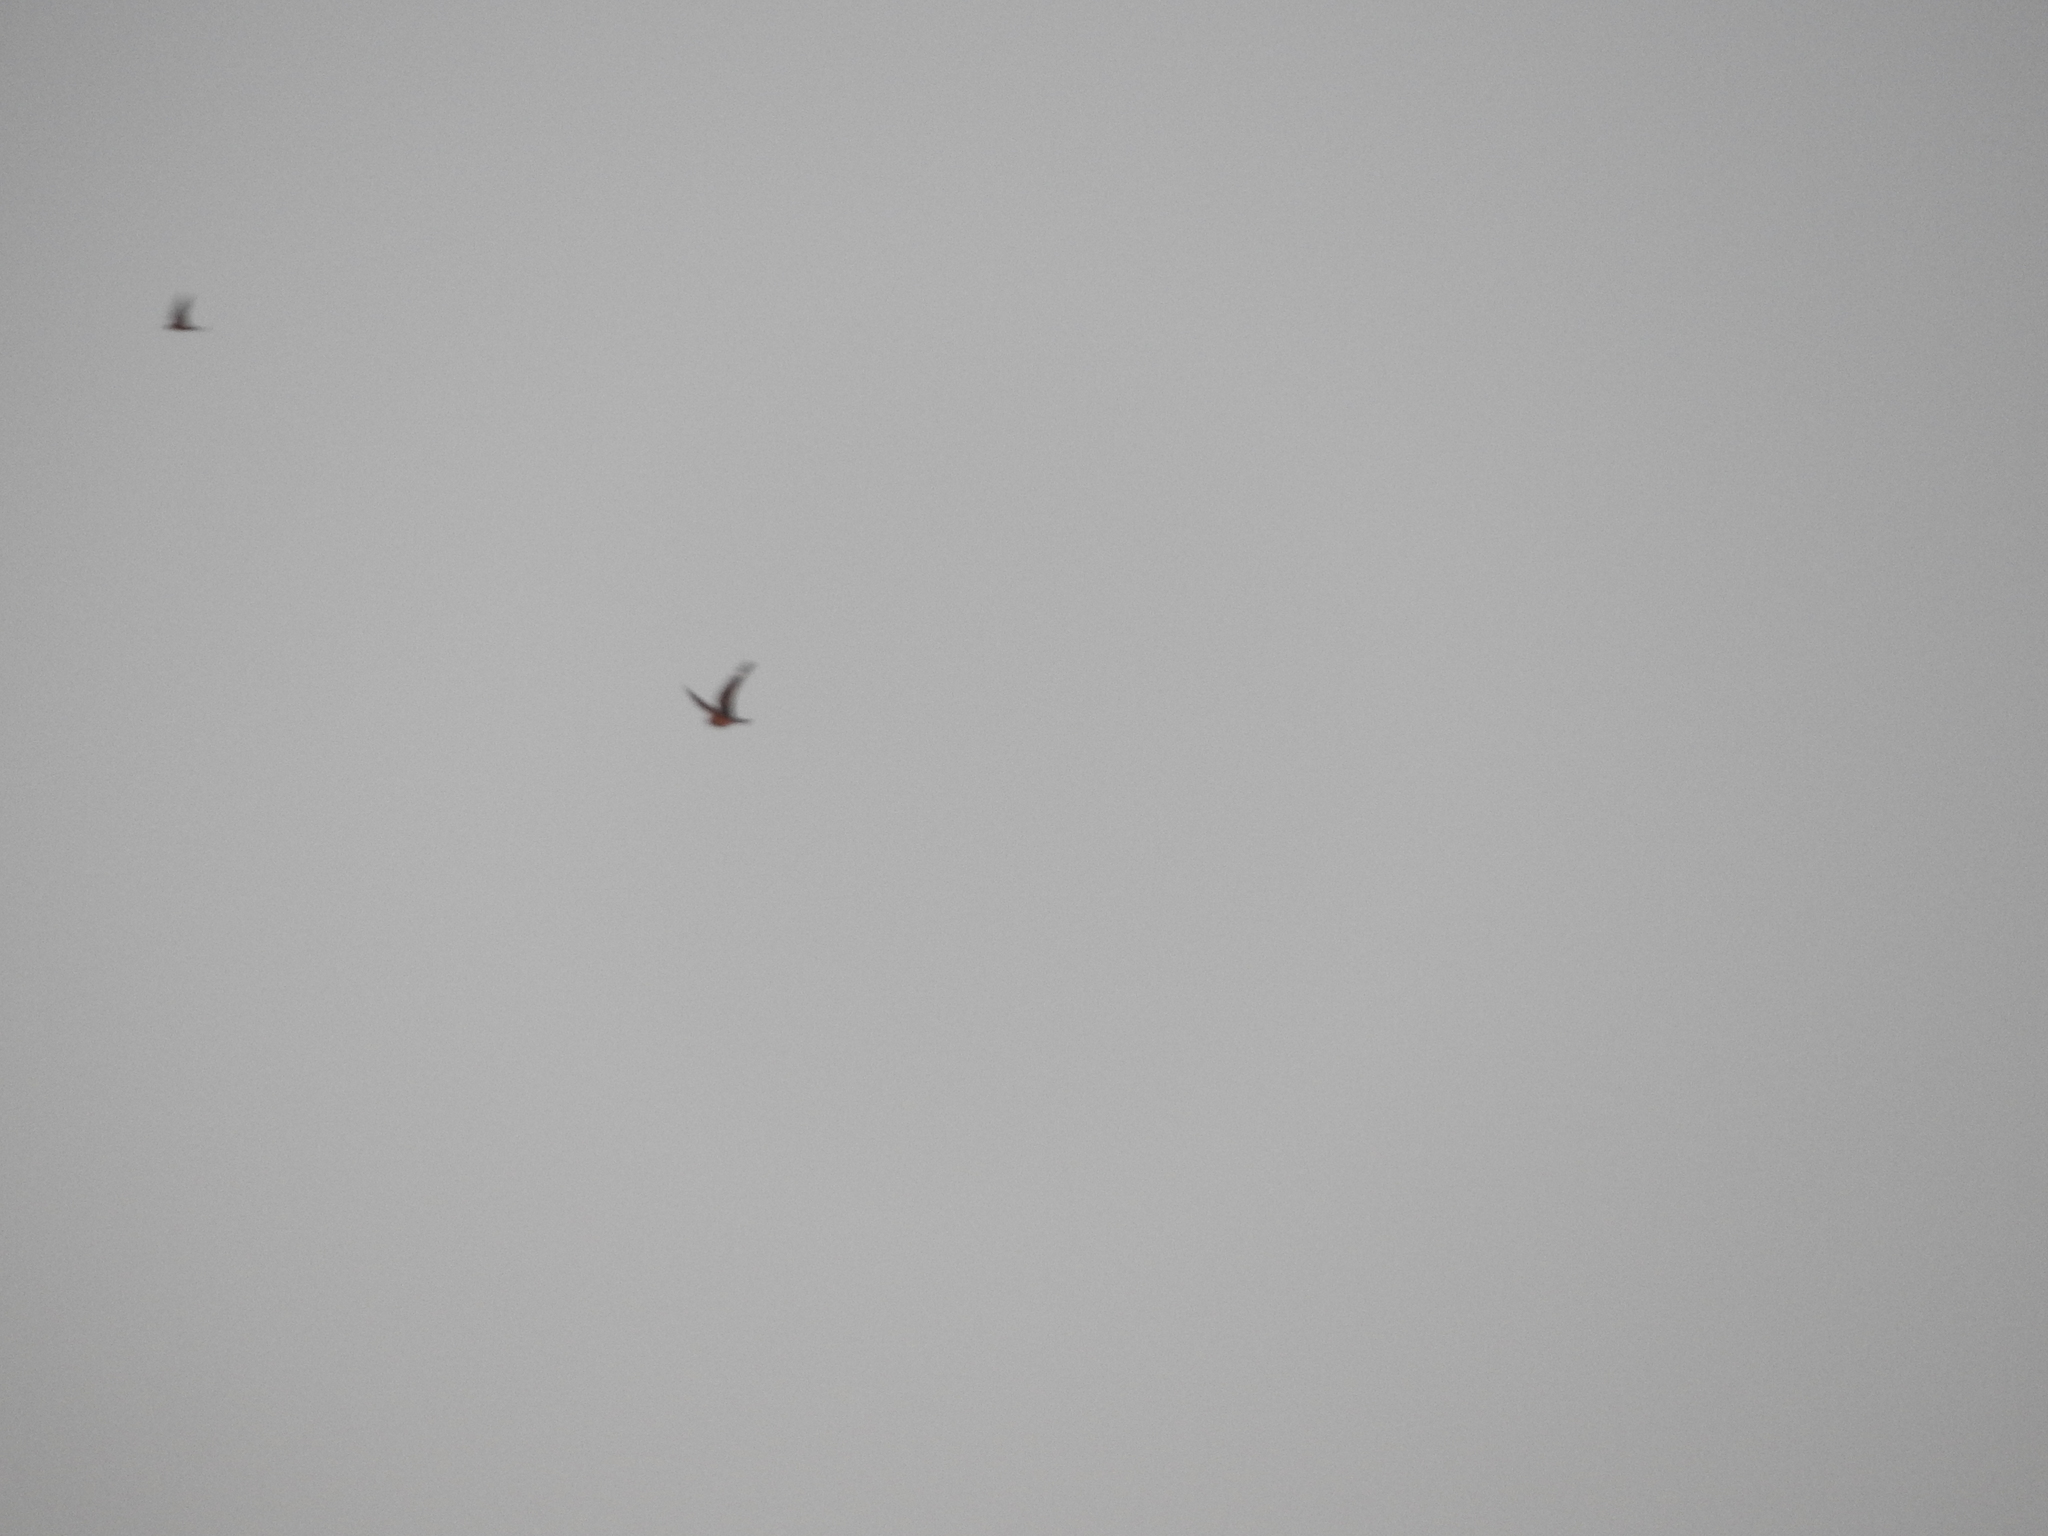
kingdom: Animalia
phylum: Chordata
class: Aves
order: Caprimulgiformes
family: Caprimulgidae
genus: Chordeiles
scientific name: Chordeiles acutipennis
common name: Lesser nighthawk
